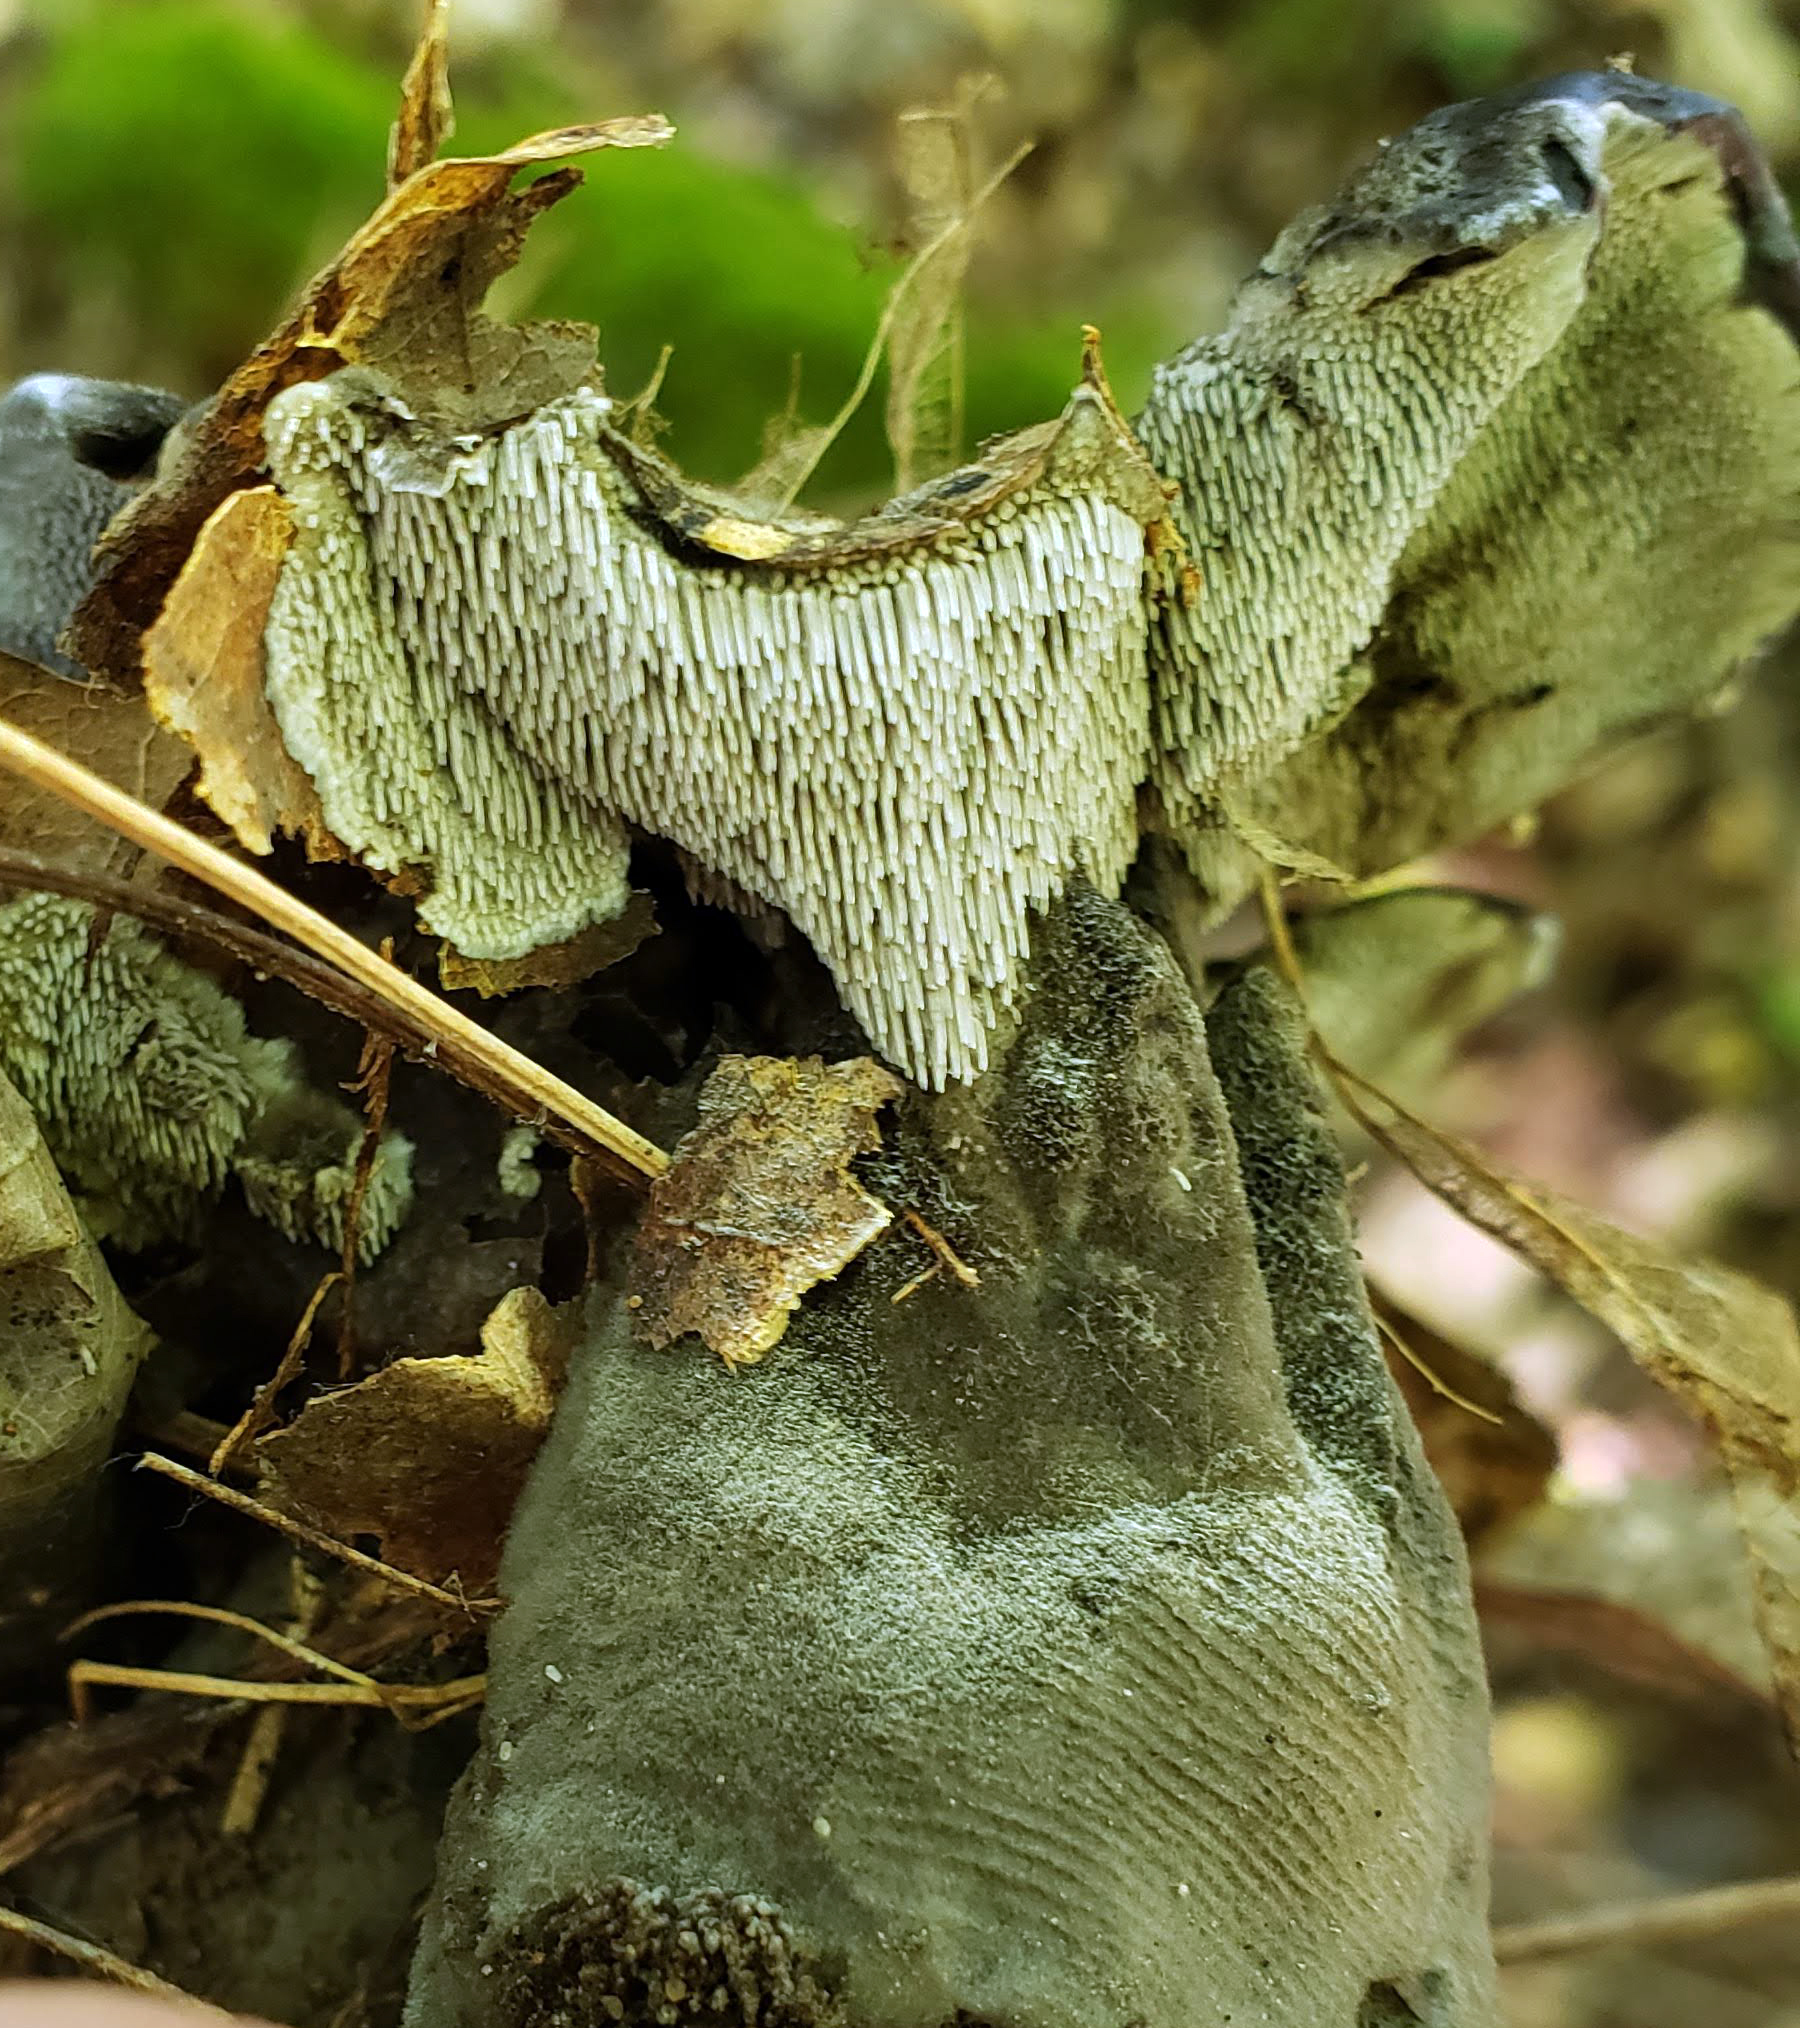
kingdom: Fungi
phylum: Basidiomycota
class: Agaricomycetes
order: Thelephorales
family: Thelephoraceae
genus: Phellodon
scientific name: Phellodon niger
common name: Black tooth
